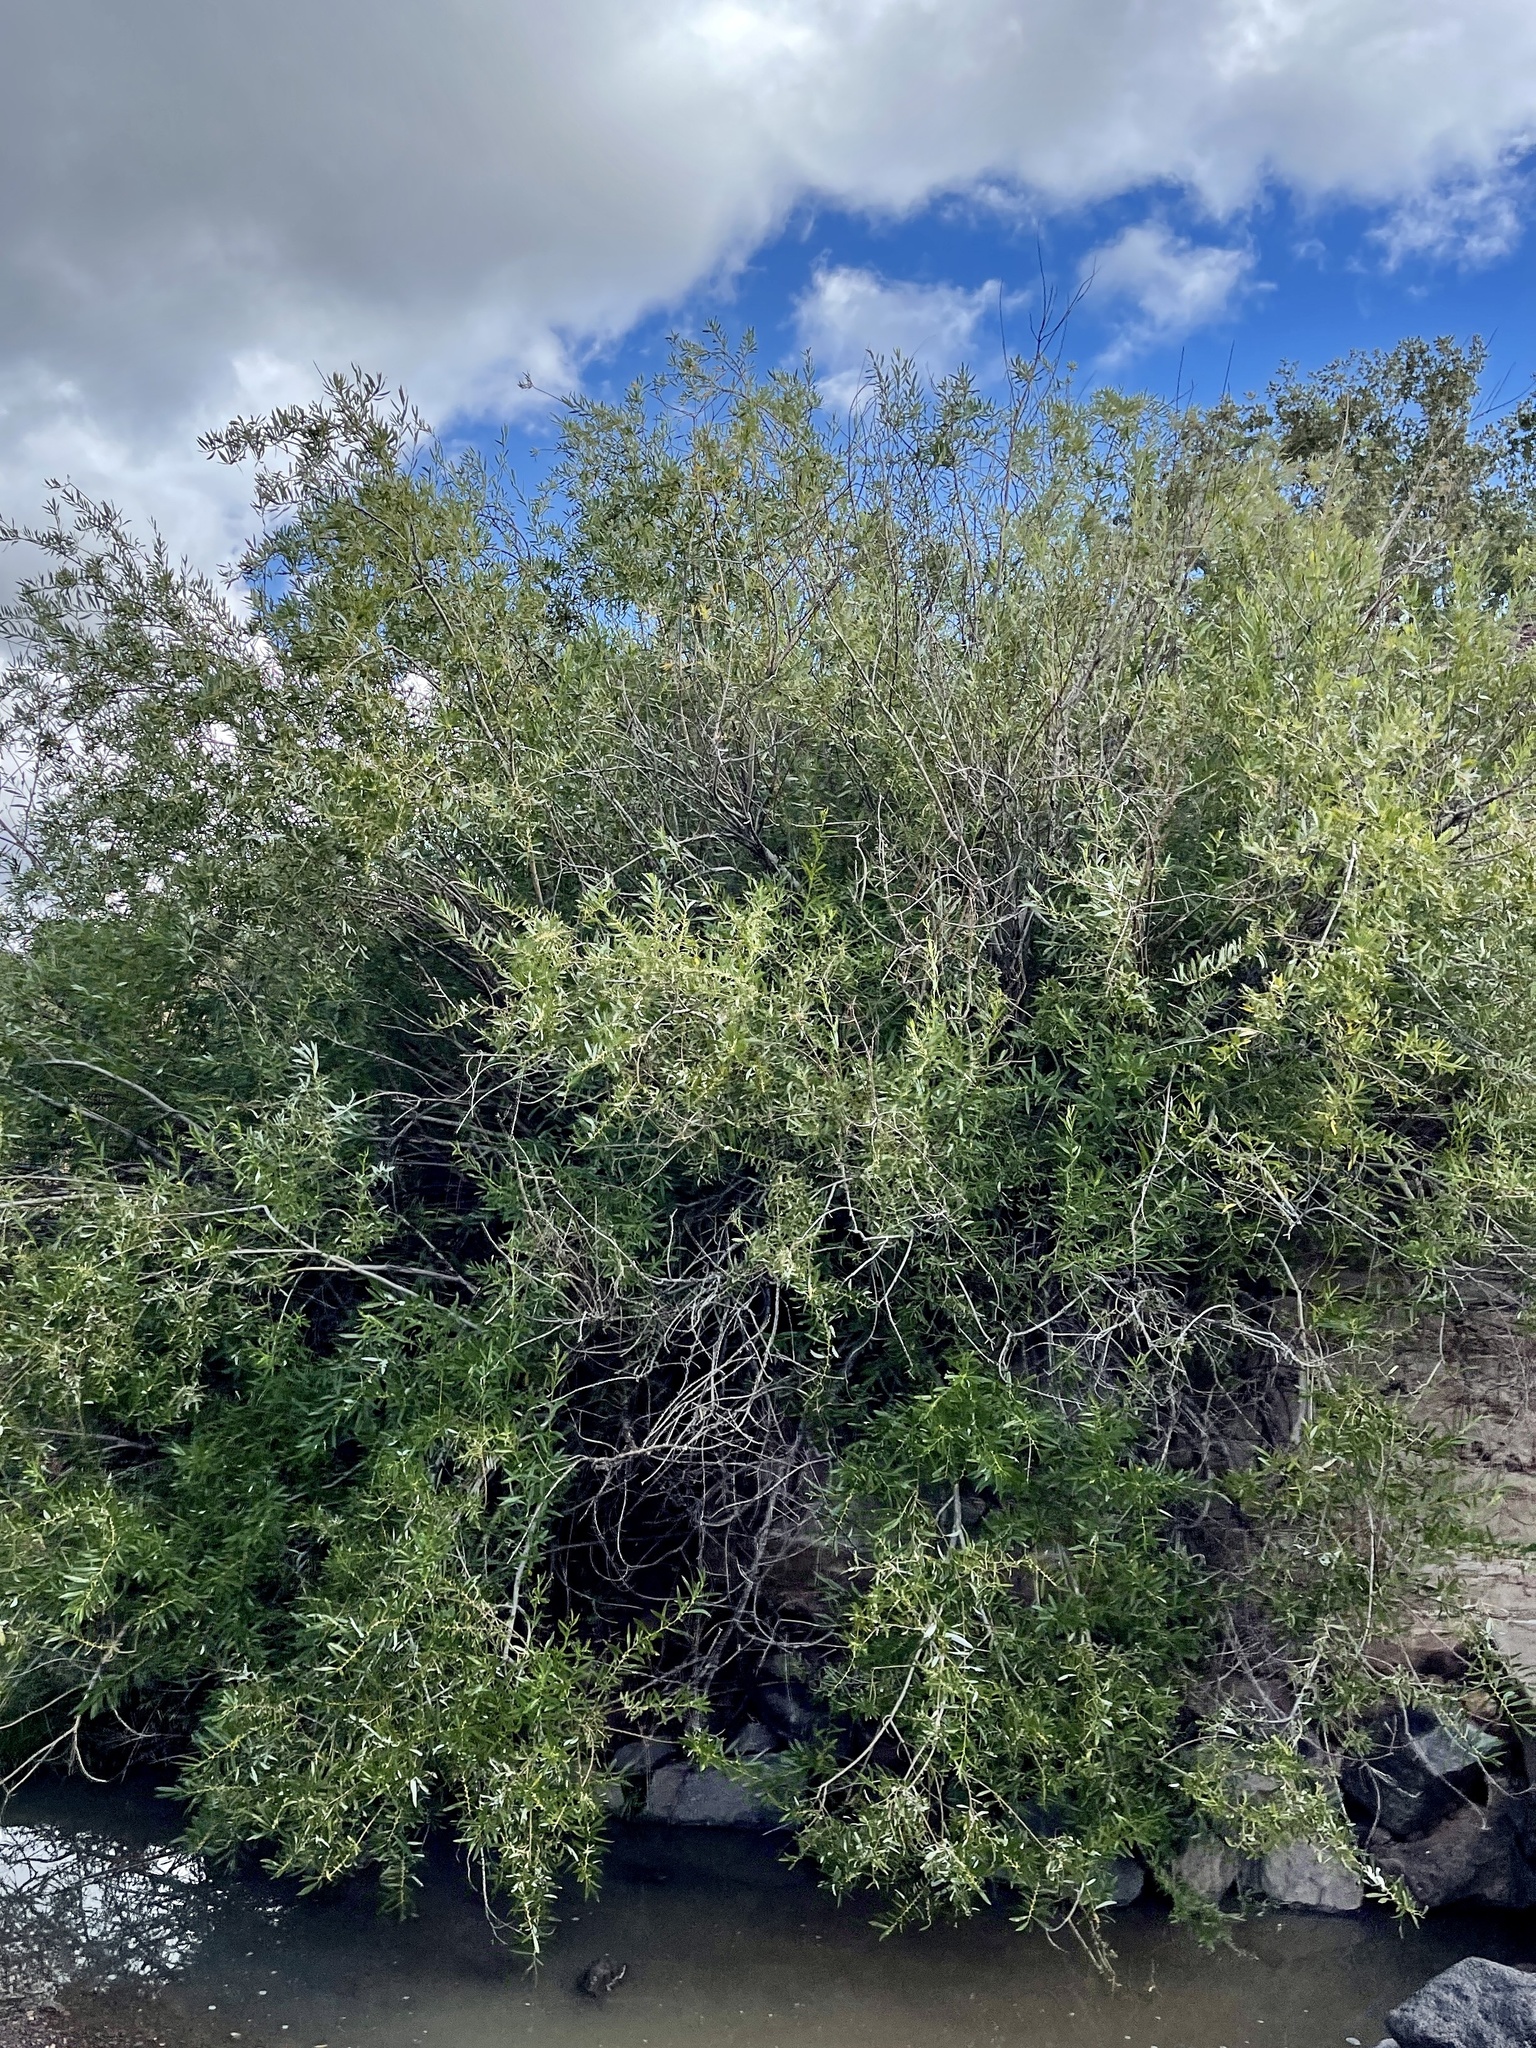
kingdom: Plantae
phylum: Tracheophyta
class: Magnoliopsida
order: Malpighiales
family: Salicaceae
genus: Salix
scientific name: Salix lasiolepis
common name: Arroyo willow
